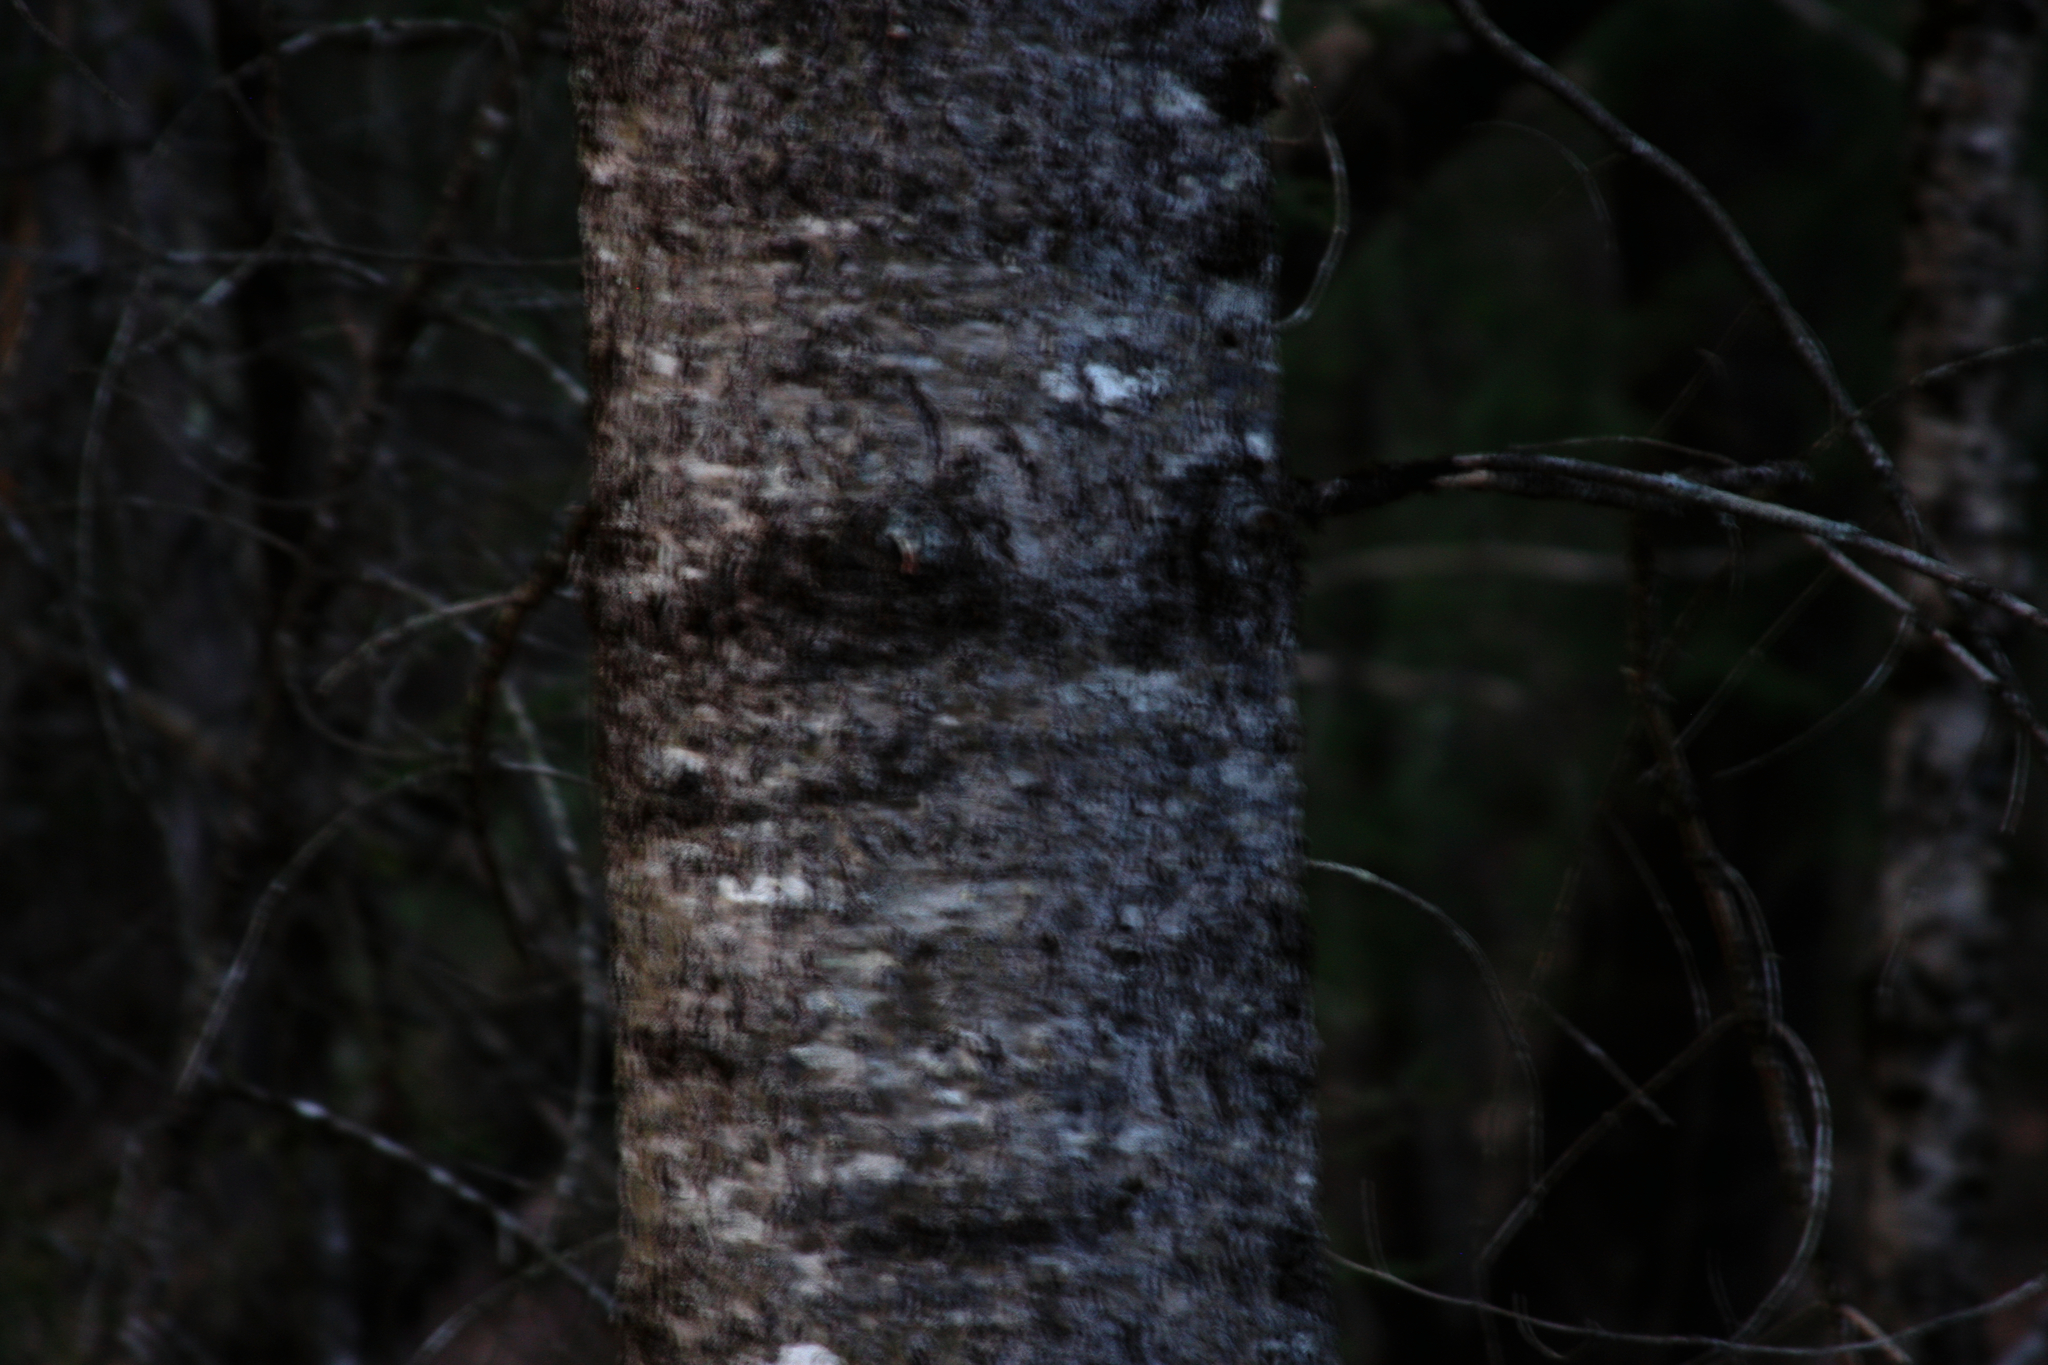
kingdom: Plantae
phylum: Tracheophyta
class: Pinopsida
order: Pinales
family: Pinaceae
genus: Abies
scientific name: Abies balsamea
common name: Balsam fir
